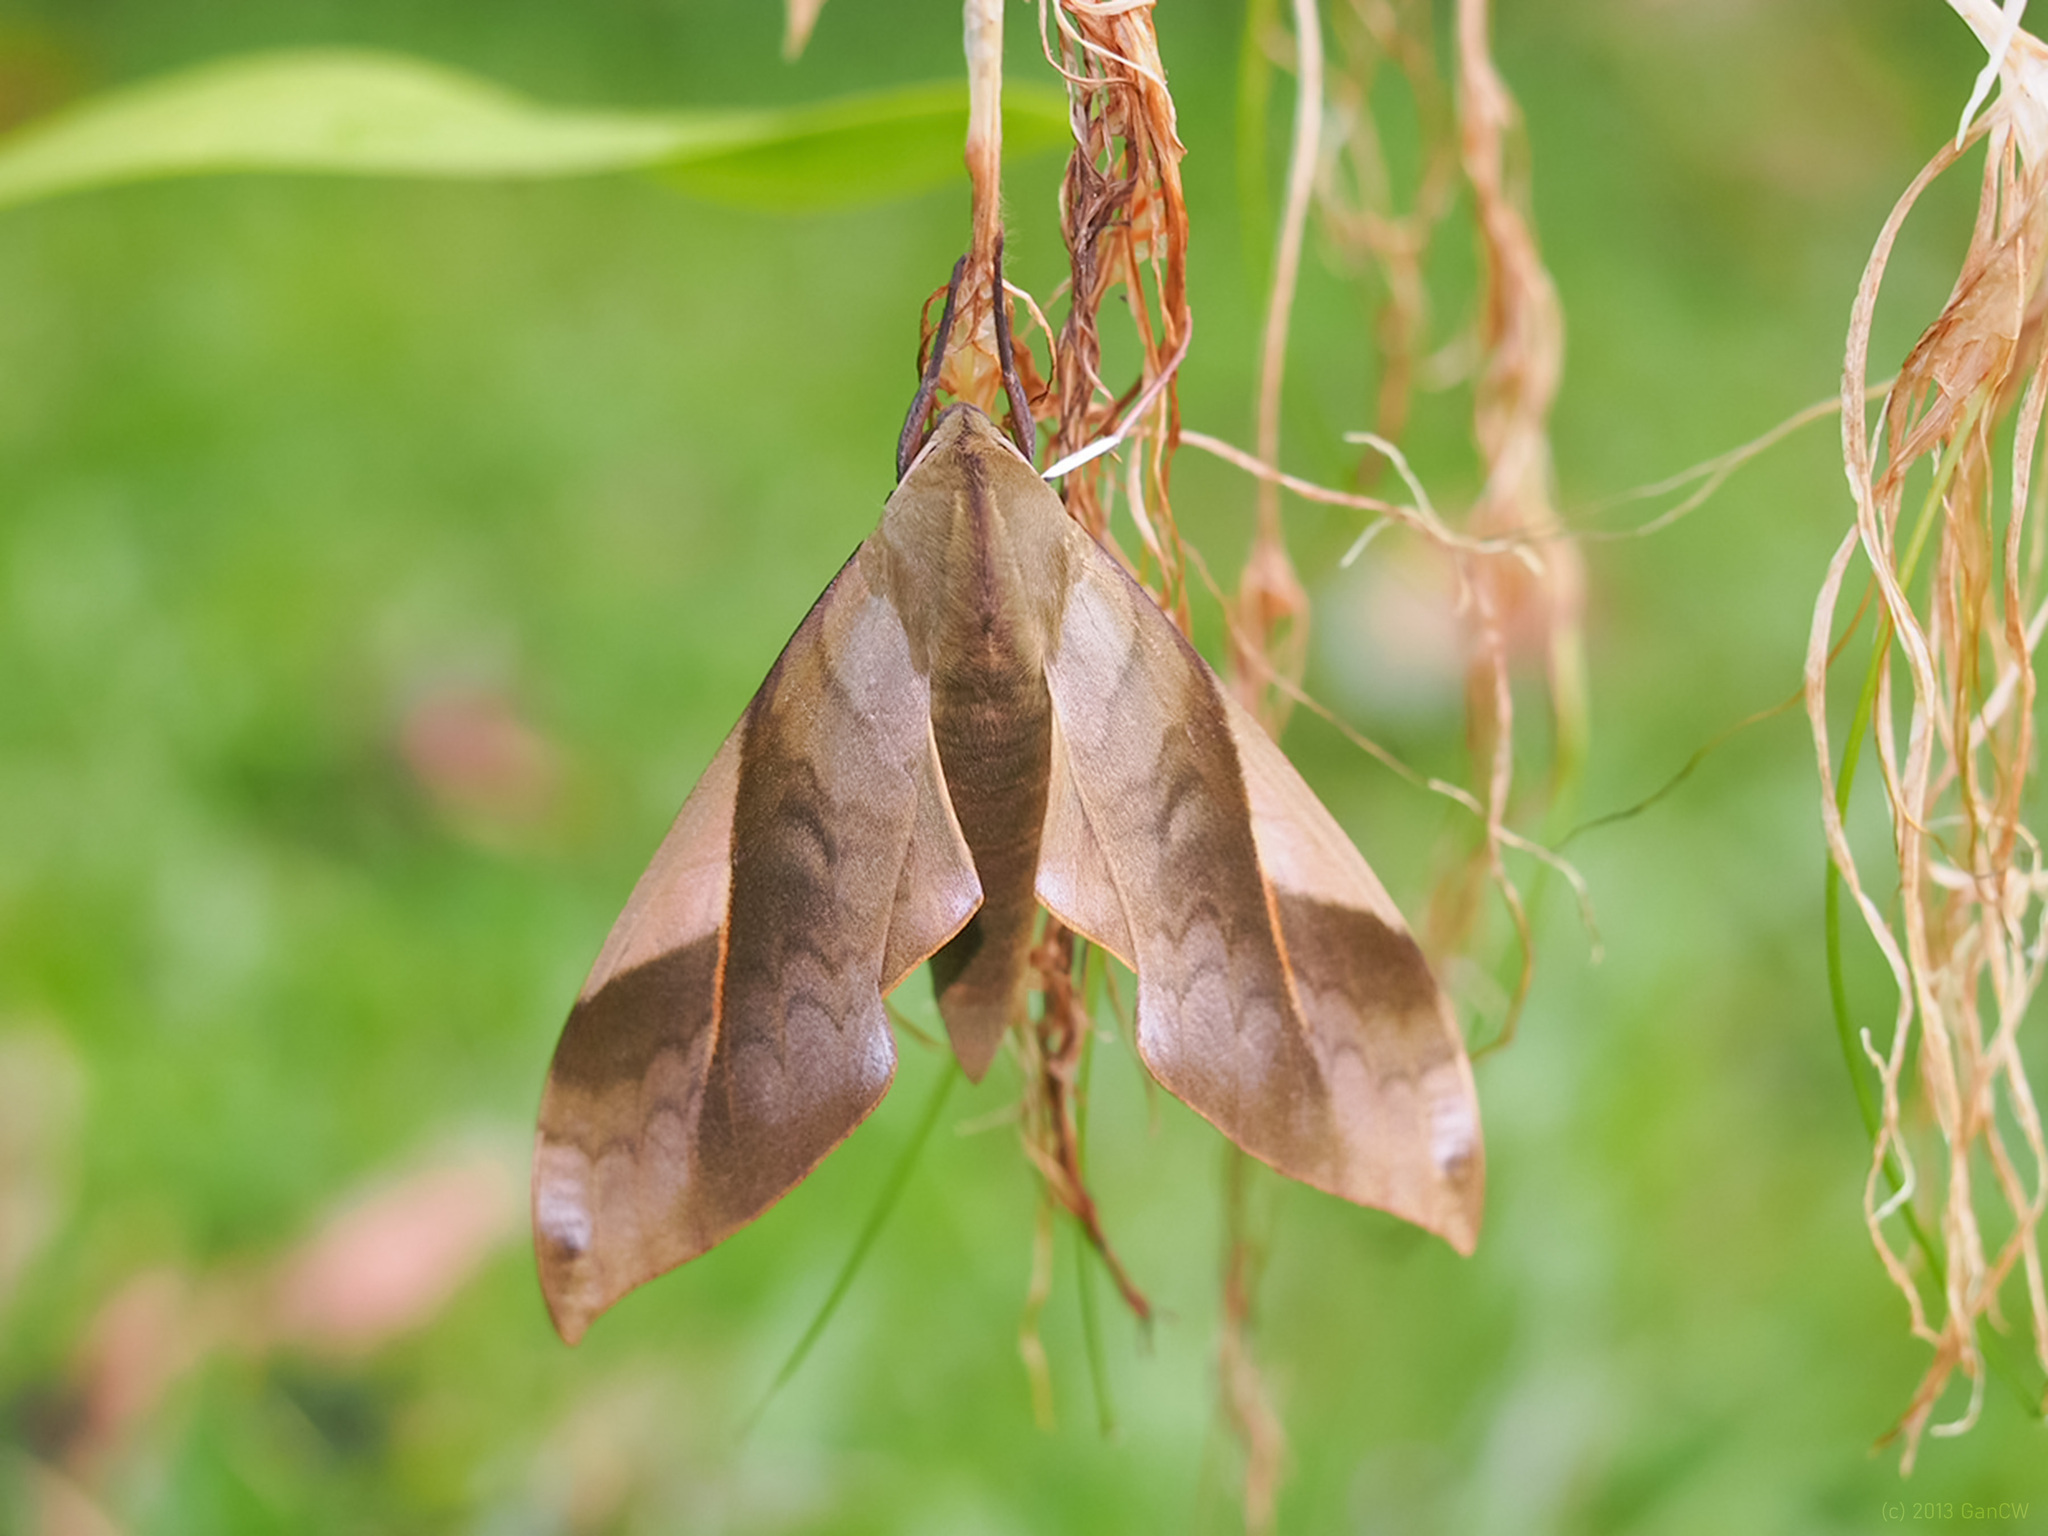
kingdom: Animalia
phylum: Arthropoda
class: Insecta
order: Lepidoptera
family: Sphingidae
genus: Clanis
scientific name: Clanis stenosema
